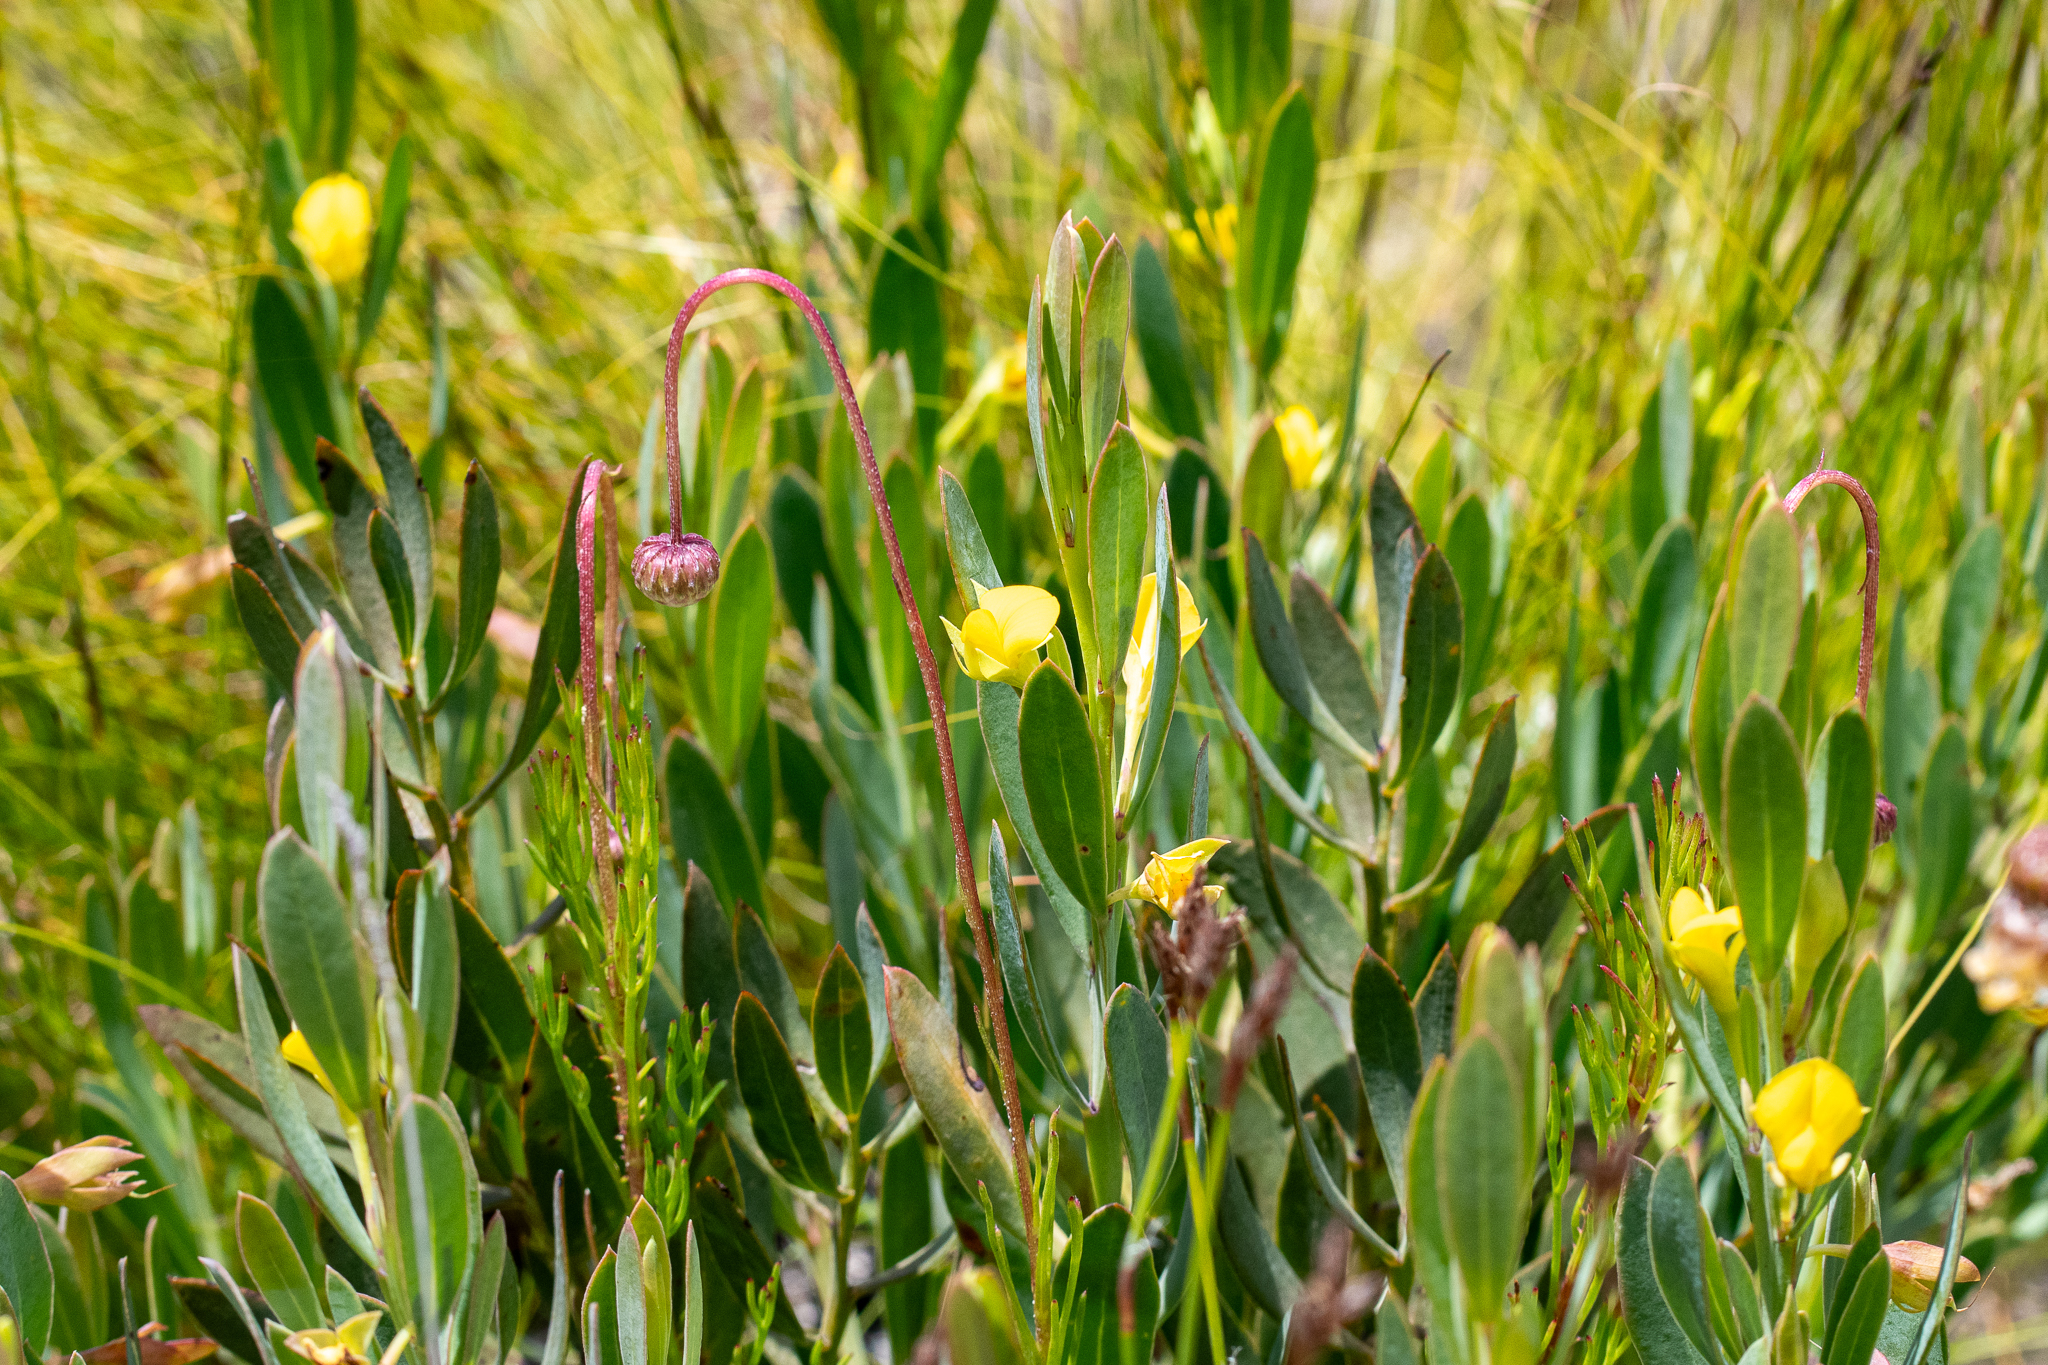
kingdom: Plantae
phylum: Tracheophyta
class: Magnoliopsida
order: Fabales
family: Fabaceae
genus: Rafnia
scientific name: Rafnia angulata
